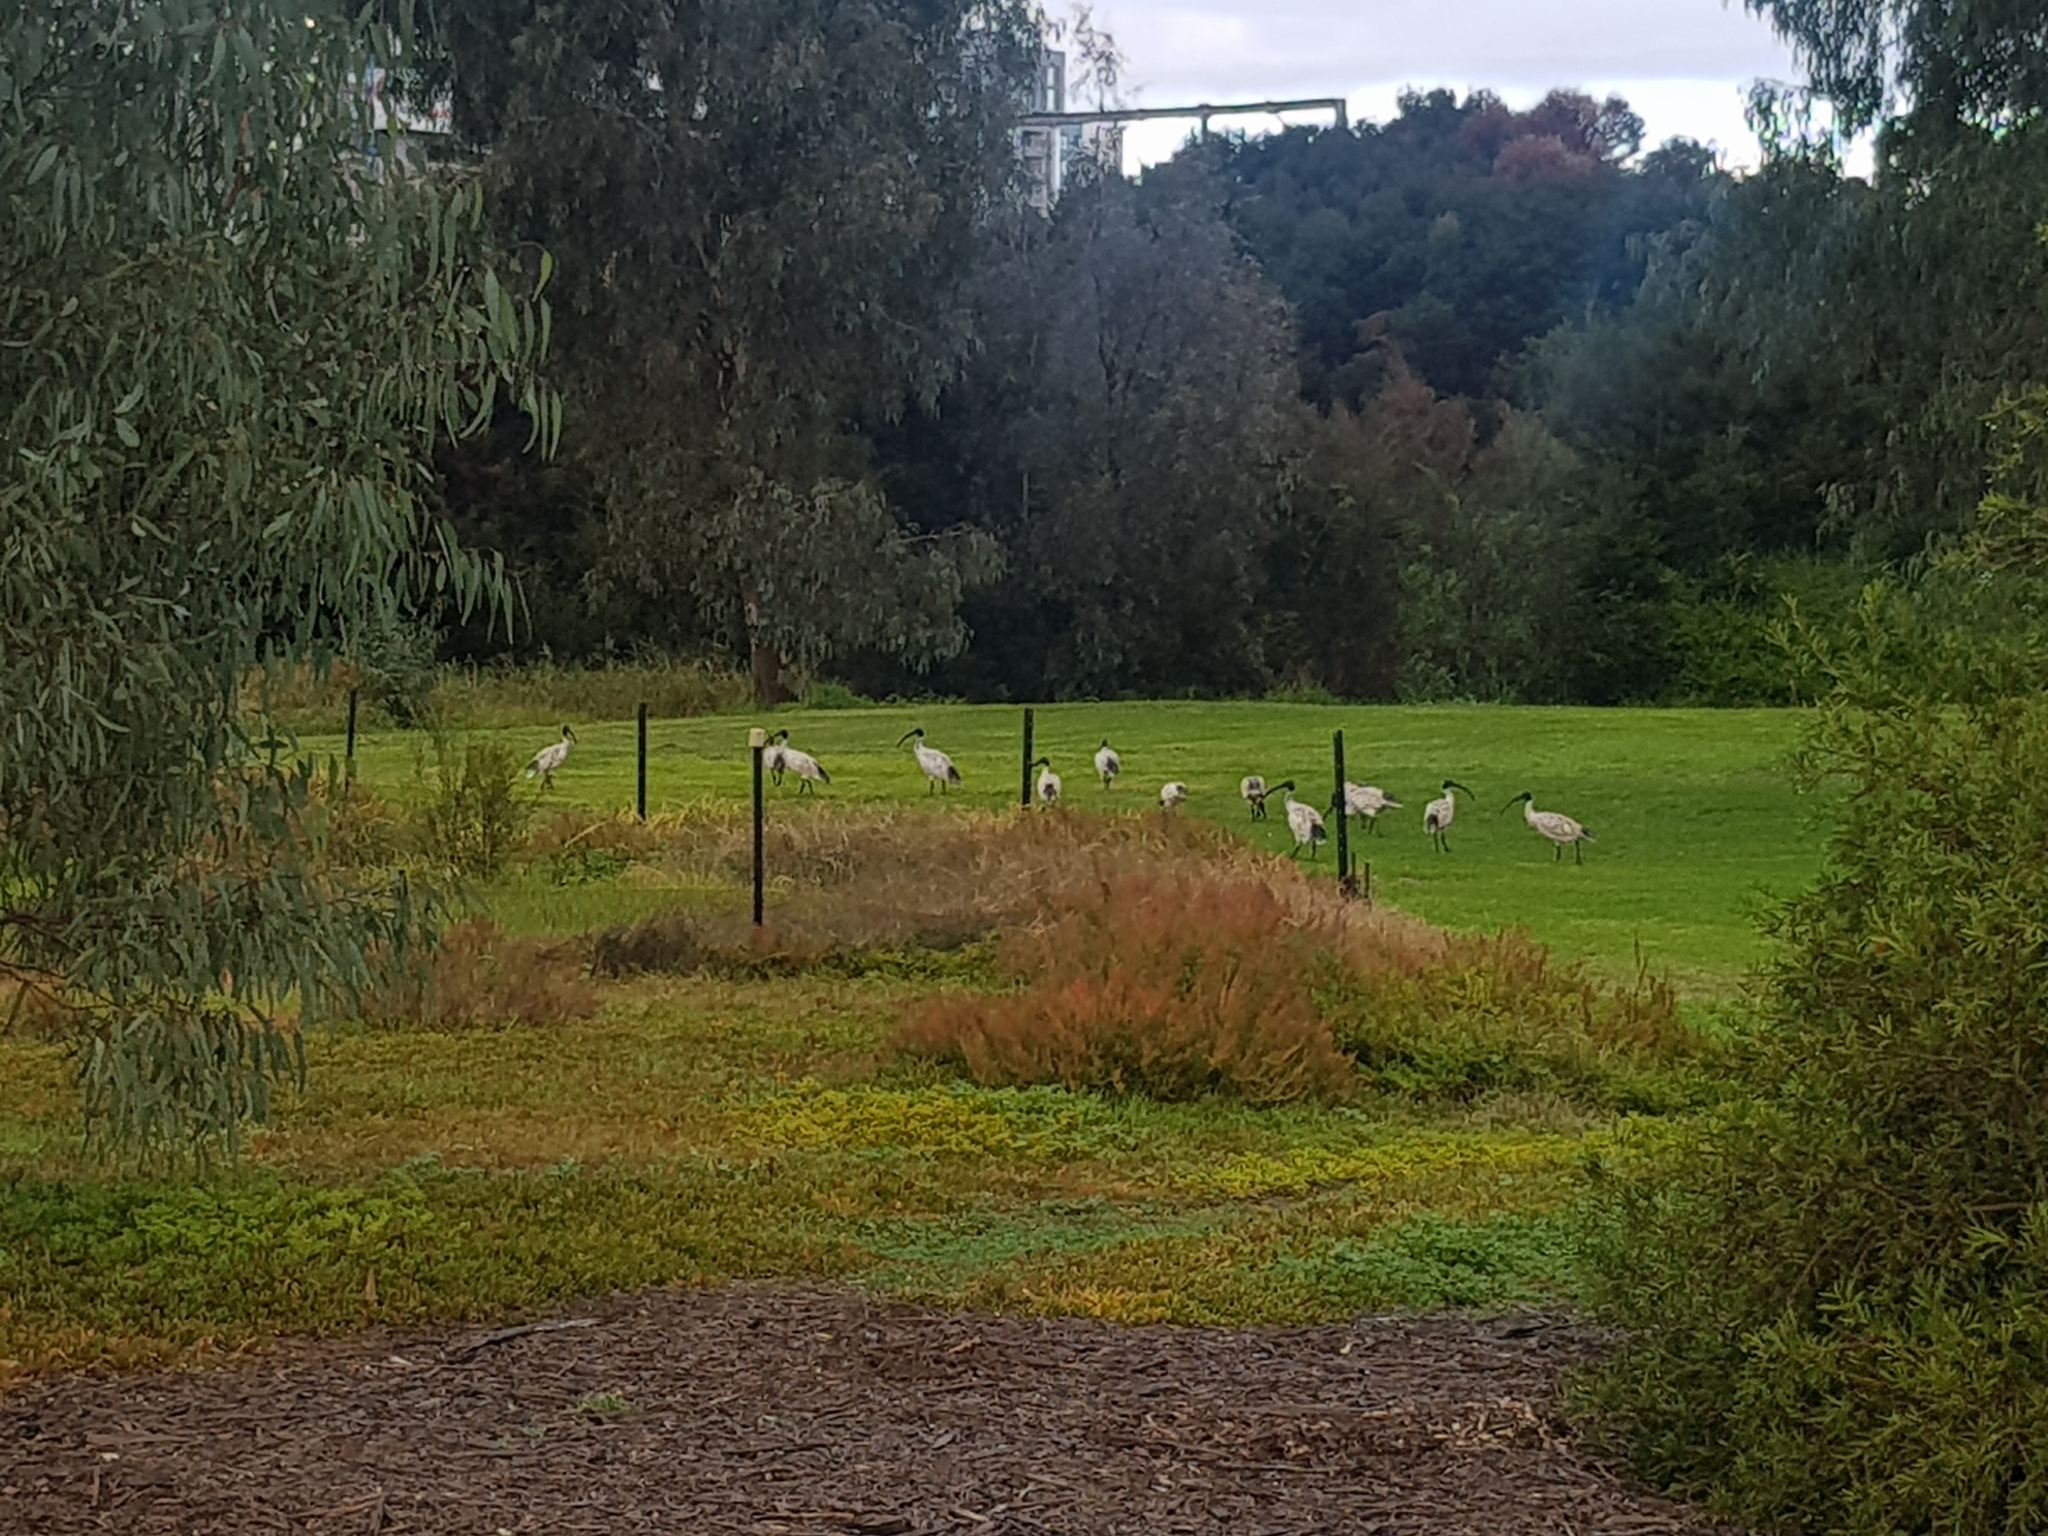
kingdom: Animalia
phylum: Chordata
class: Aves
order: Pelecaniformes
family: Threskiornithidae
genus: Threskiornis
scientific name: Threskiornis molucca
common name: Australian white ibis
